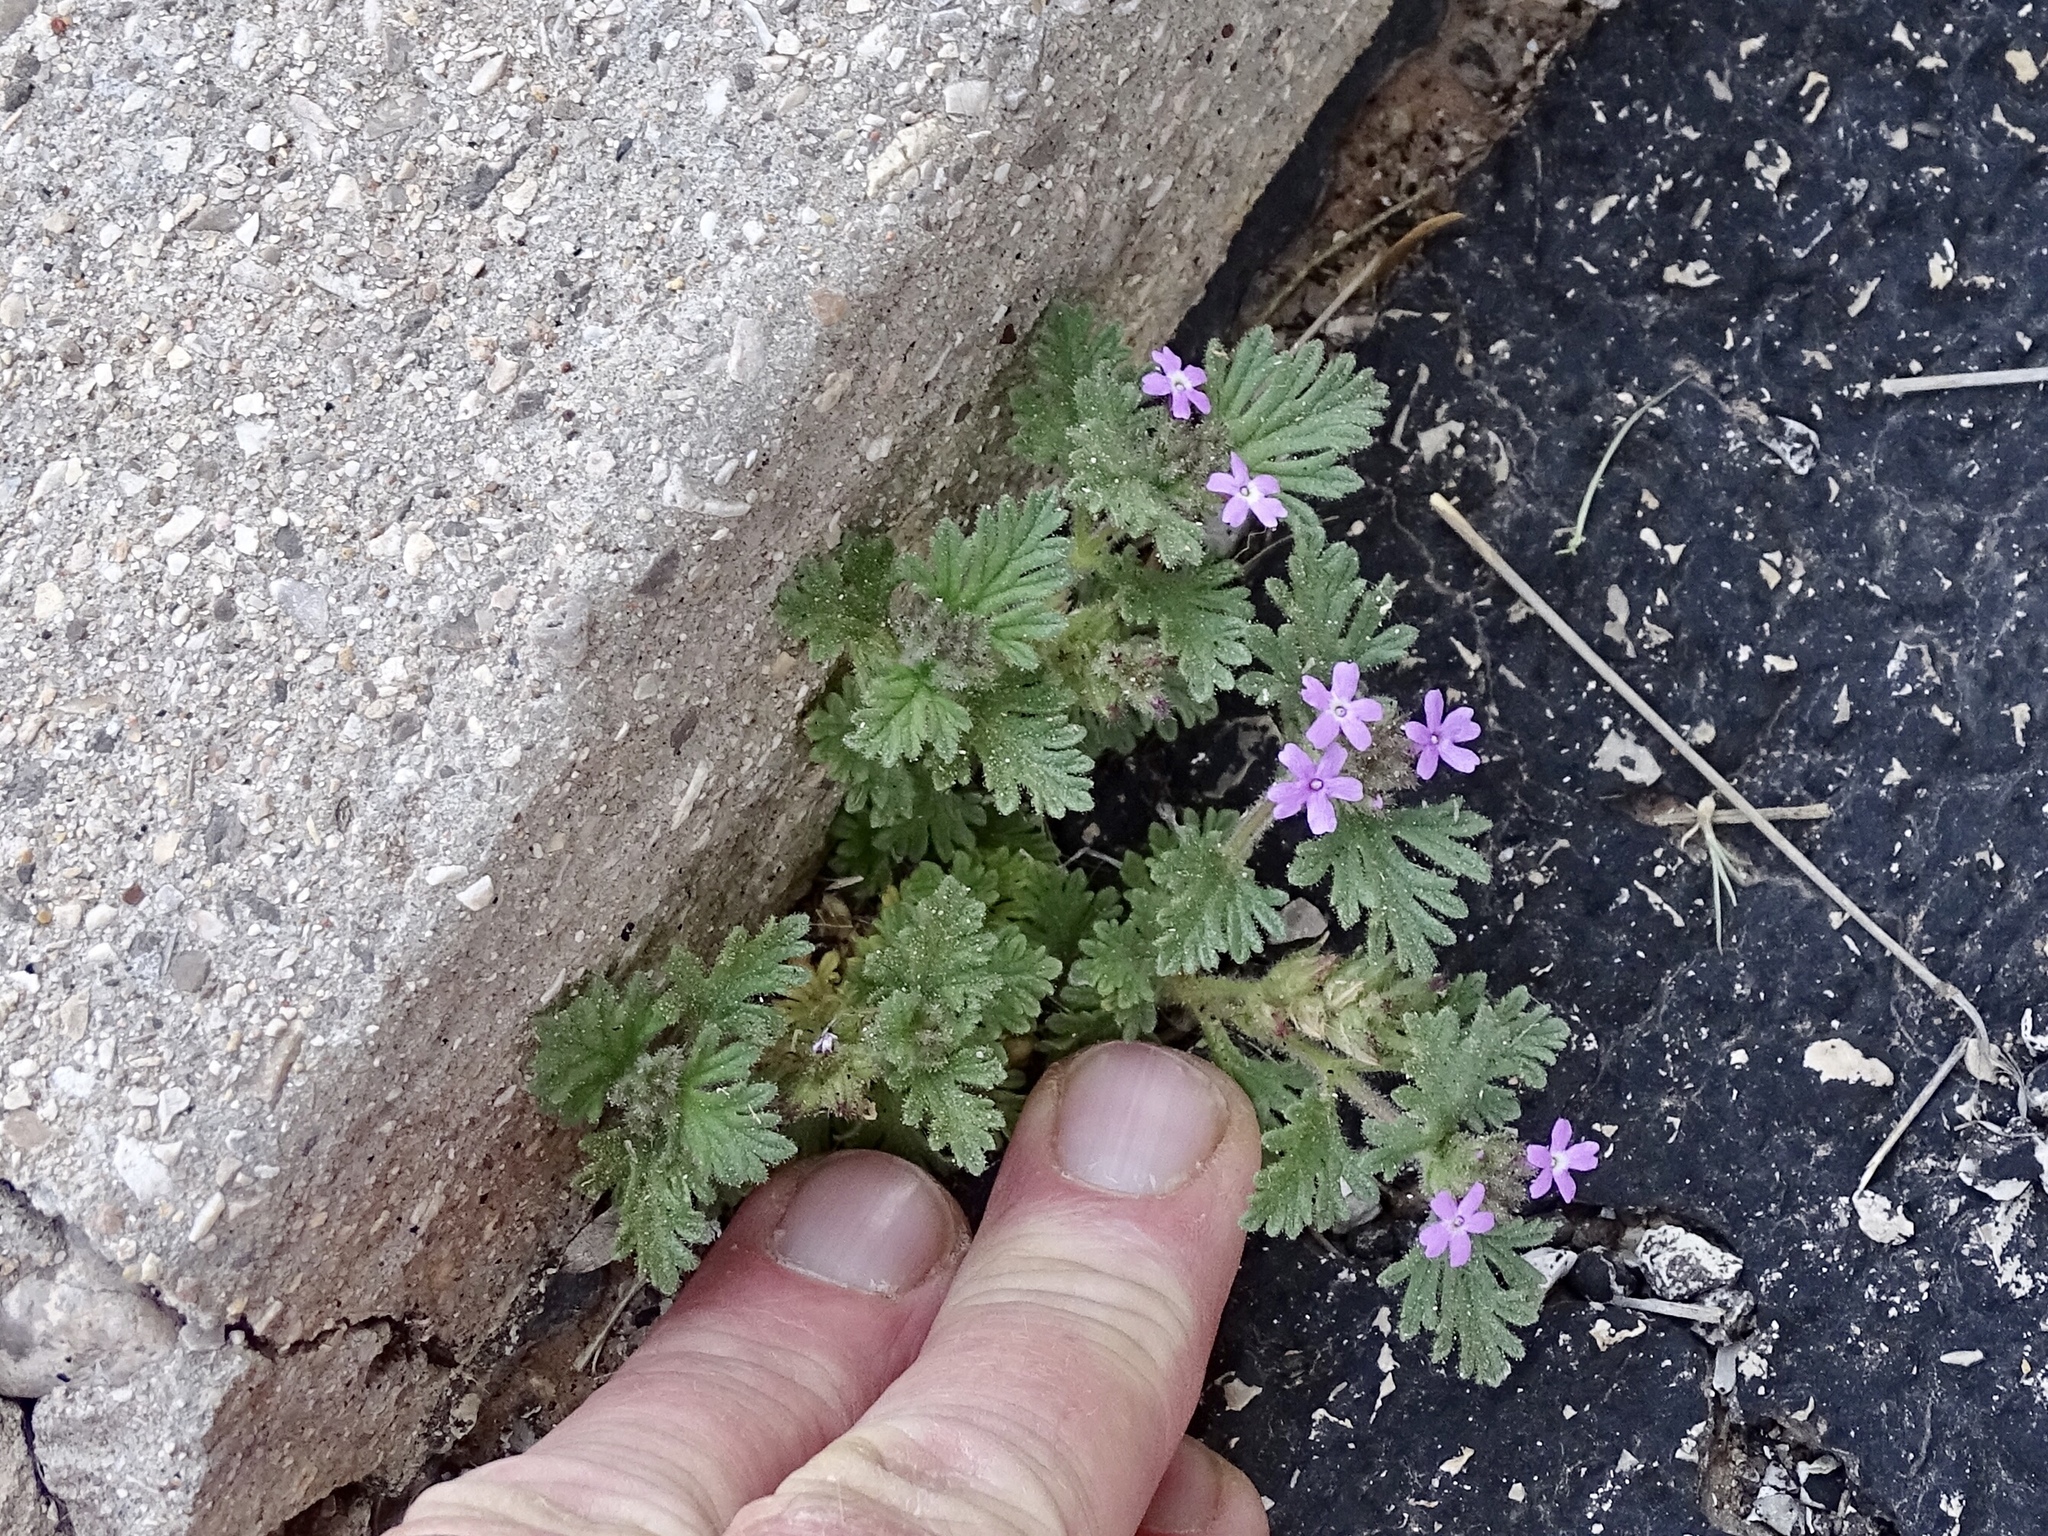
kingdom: Plantae
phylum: Tracheophyta
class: Magnoliopsida
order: Lamiales
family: Verbenaceae
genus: Verbena
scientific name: Verbena pumila
